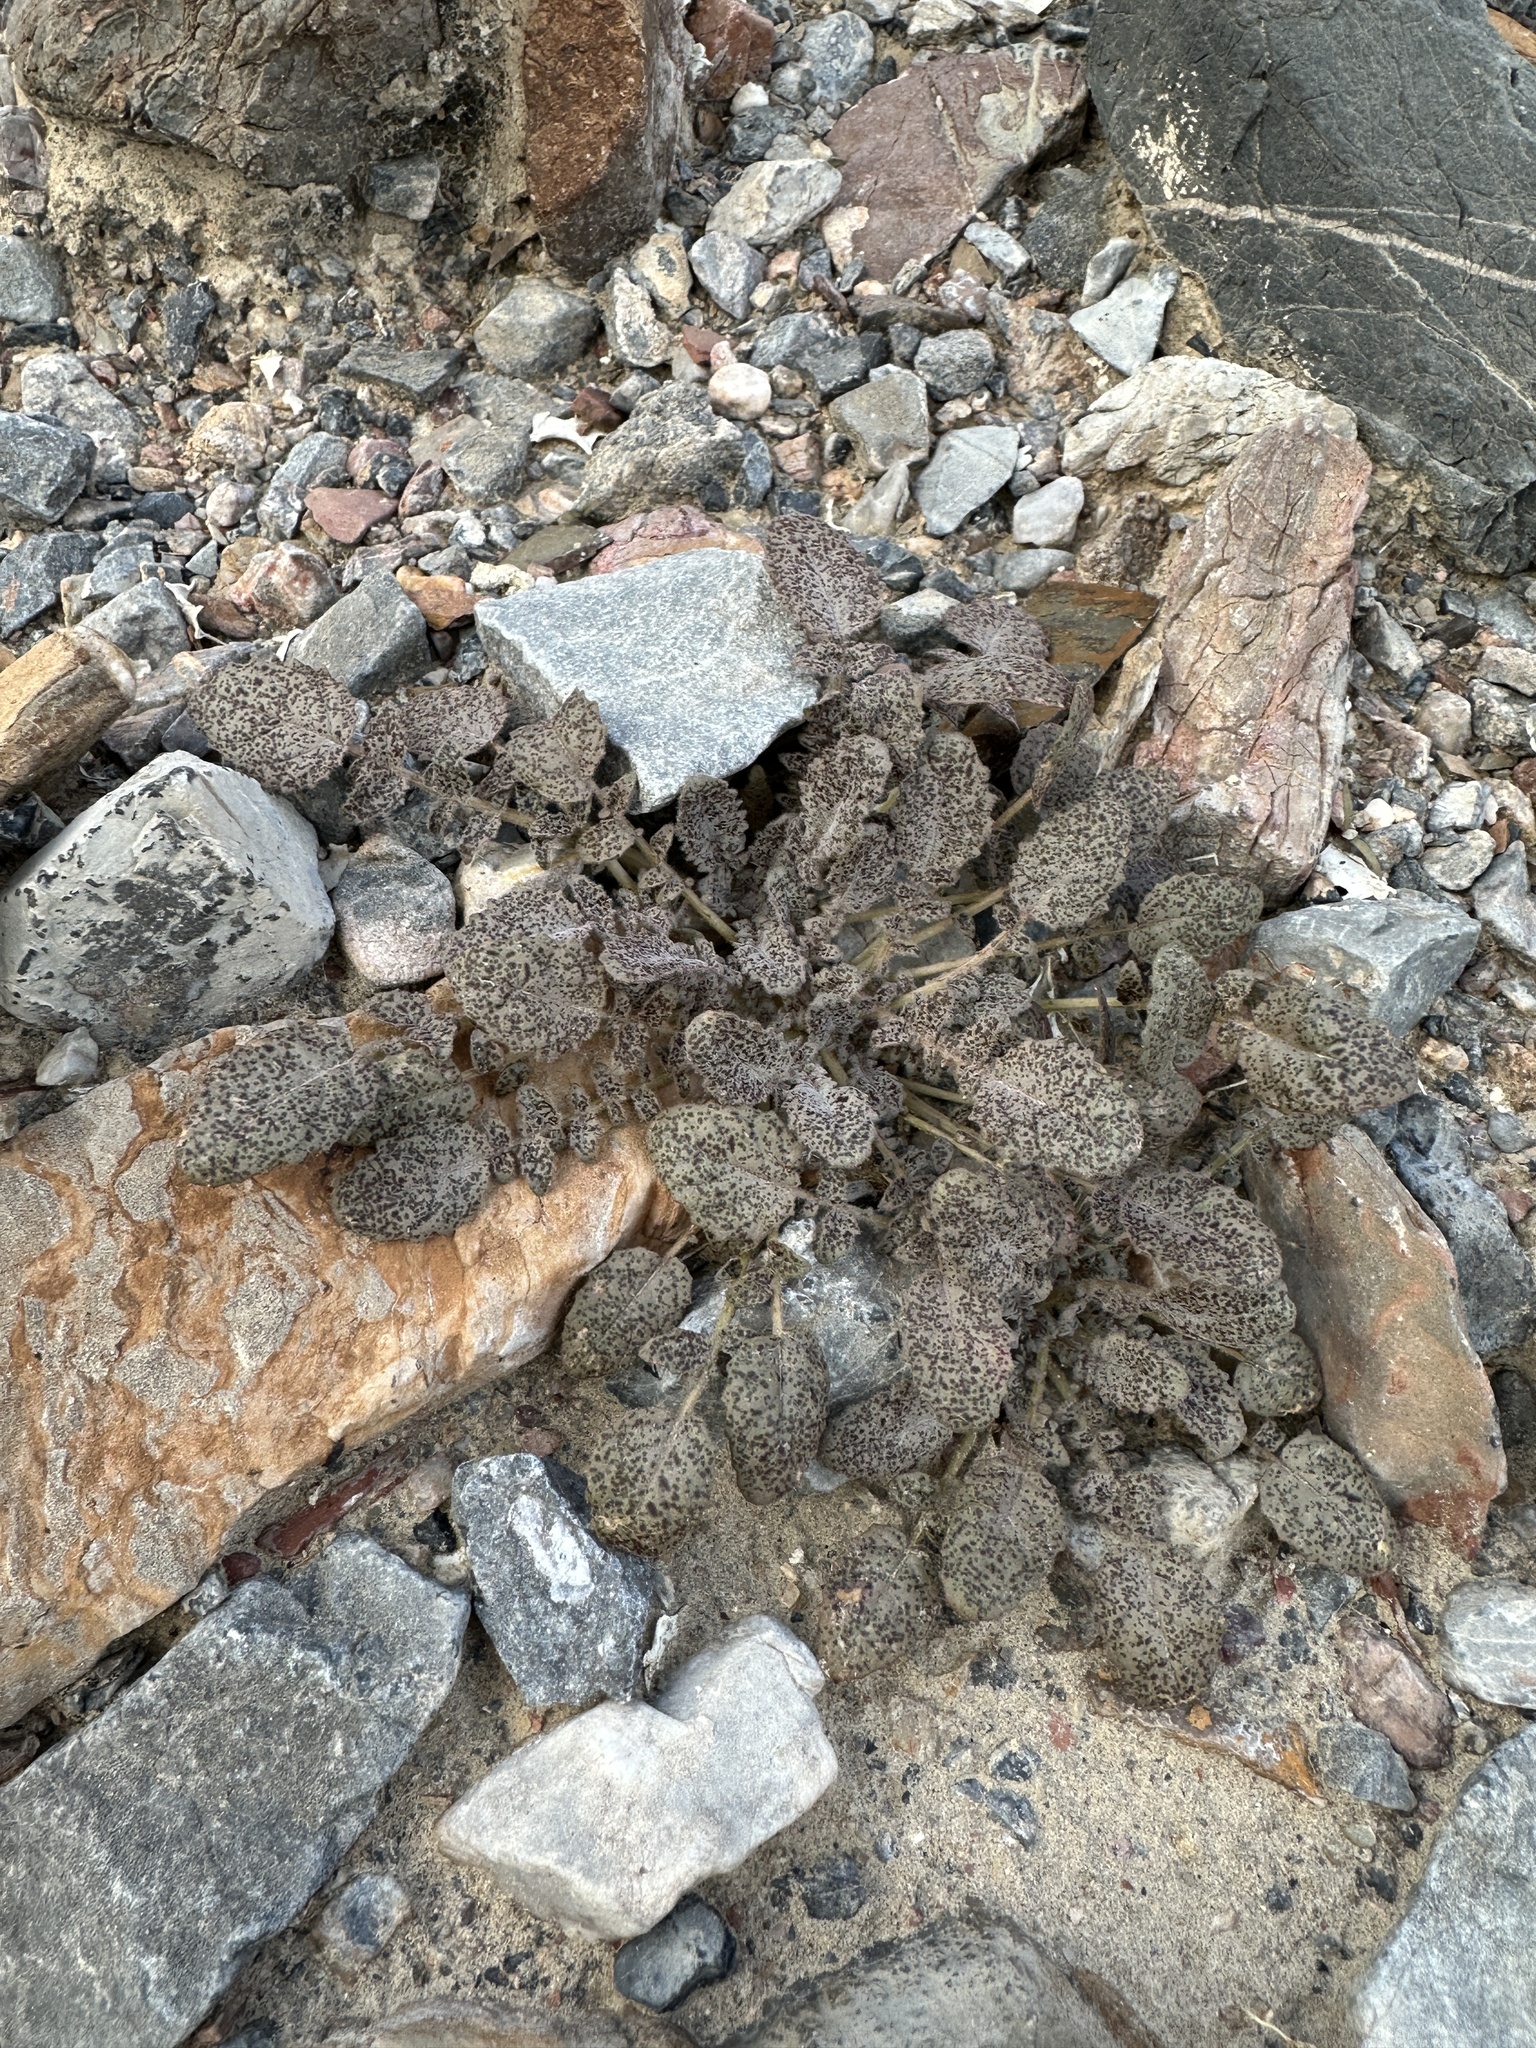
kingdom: Plantae
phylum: Tracheophyta
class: Magnoliopsida
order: Myrtales
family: Onagraceae
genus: Chylismia
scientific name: Chylismia walkeri
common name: Walker's suncup
